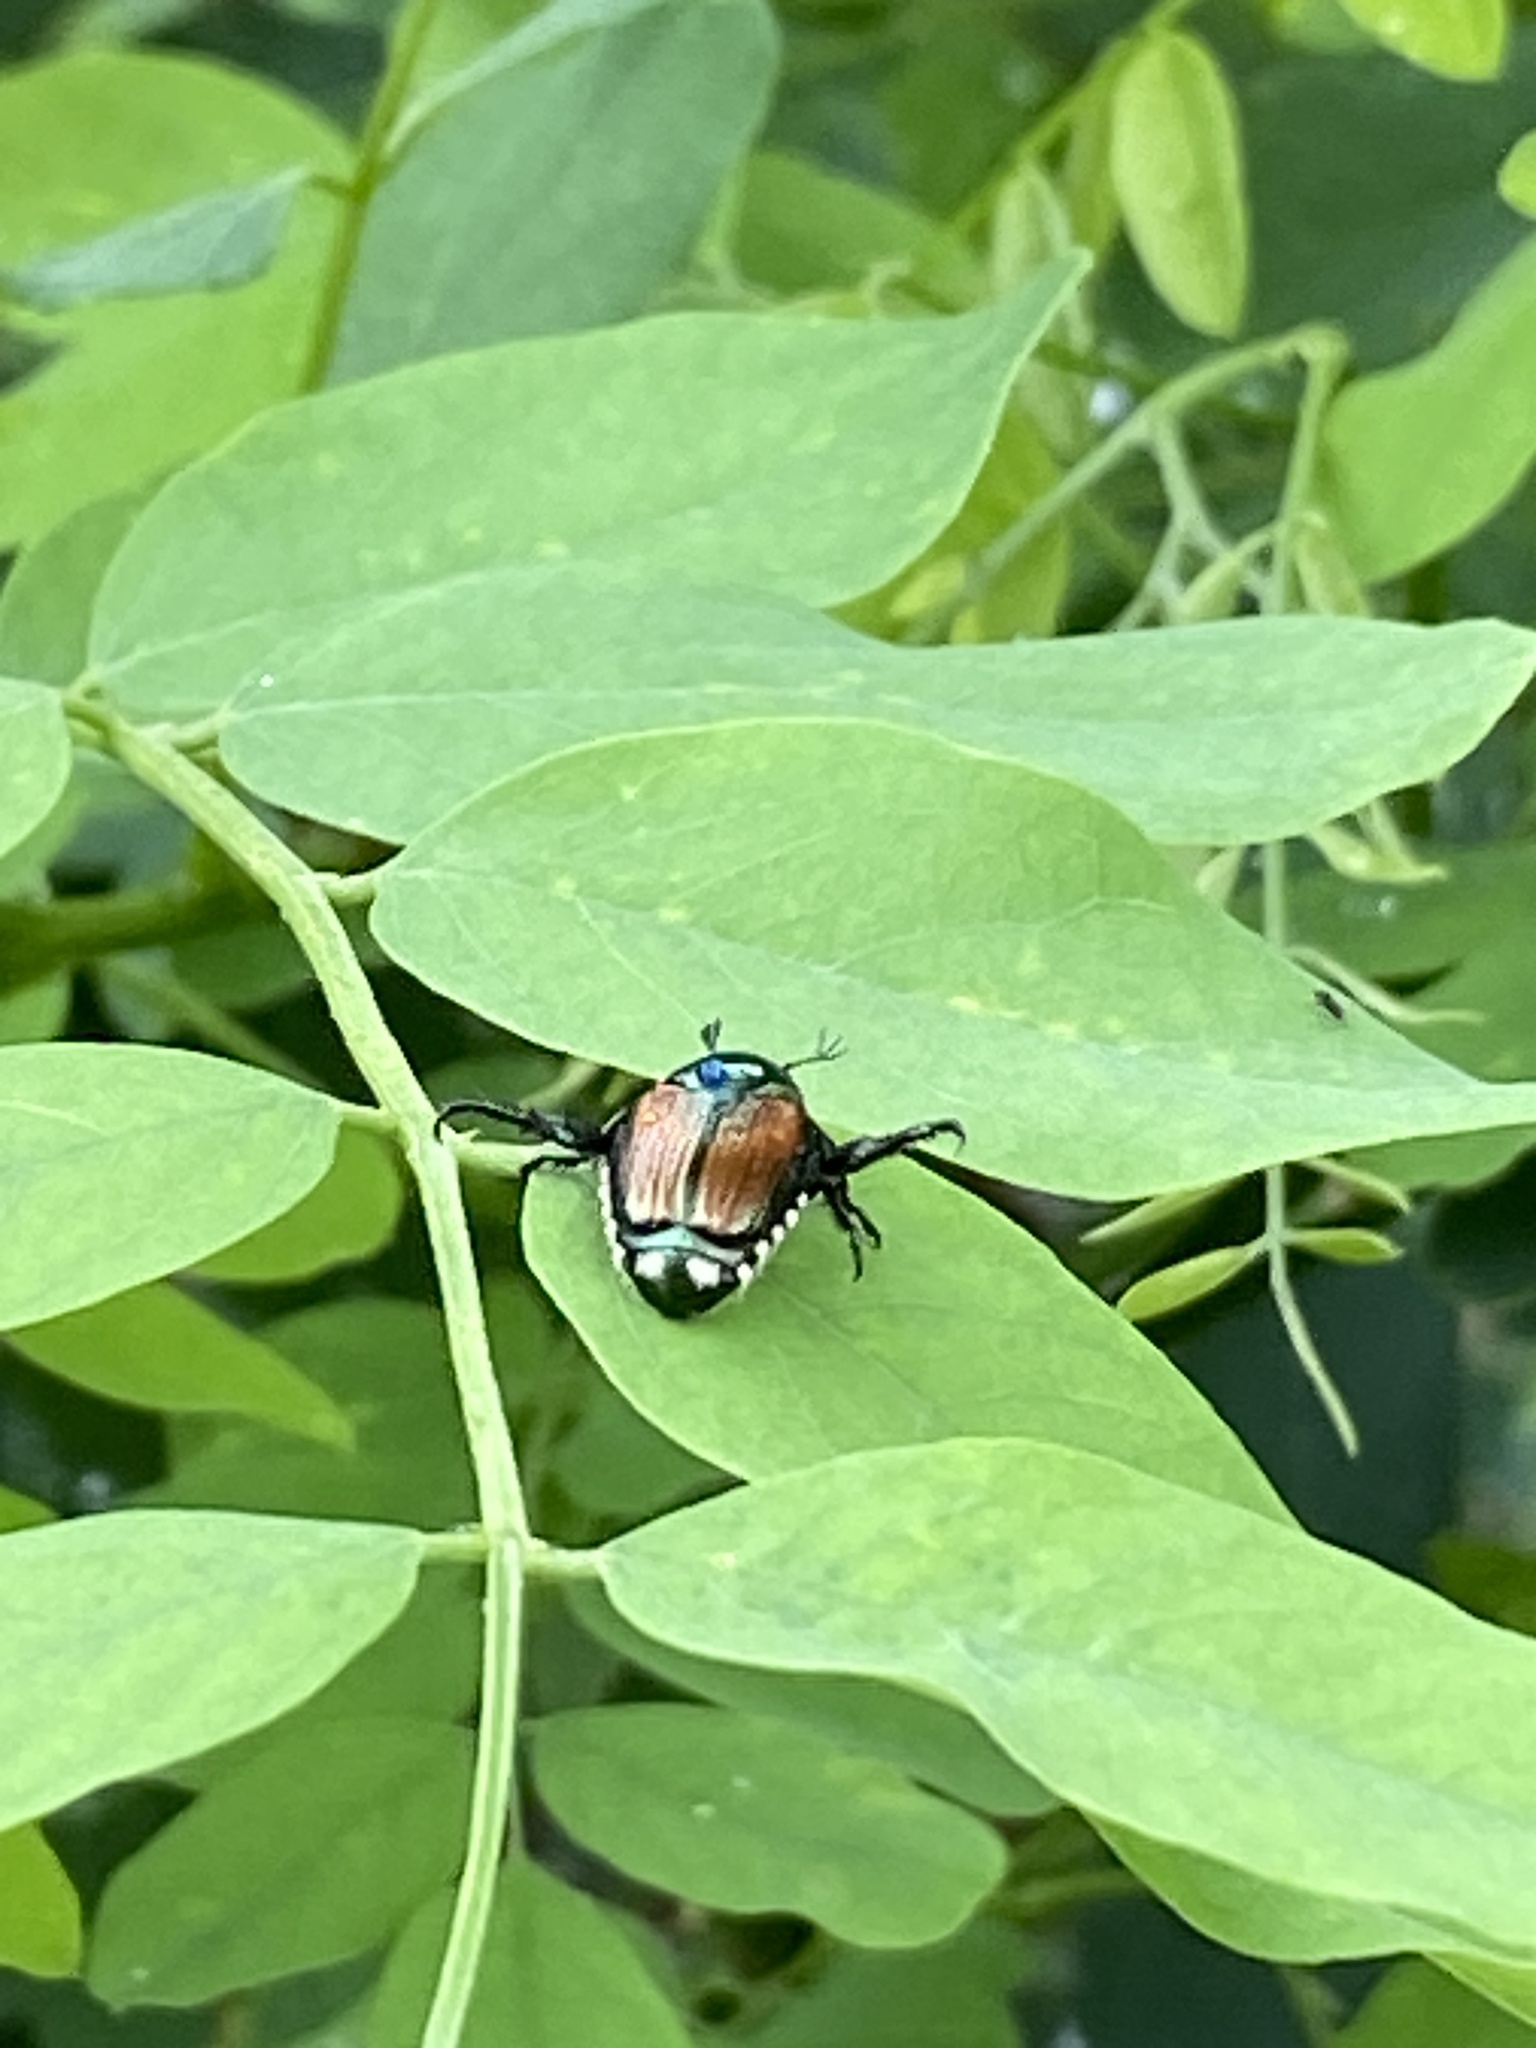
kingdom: Animalia
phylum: Arthropoda
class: Insecta
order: Coleoptera
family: Scarabaeidae
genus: Popillia
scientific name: Popillia japonica
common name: Japanese beetle
